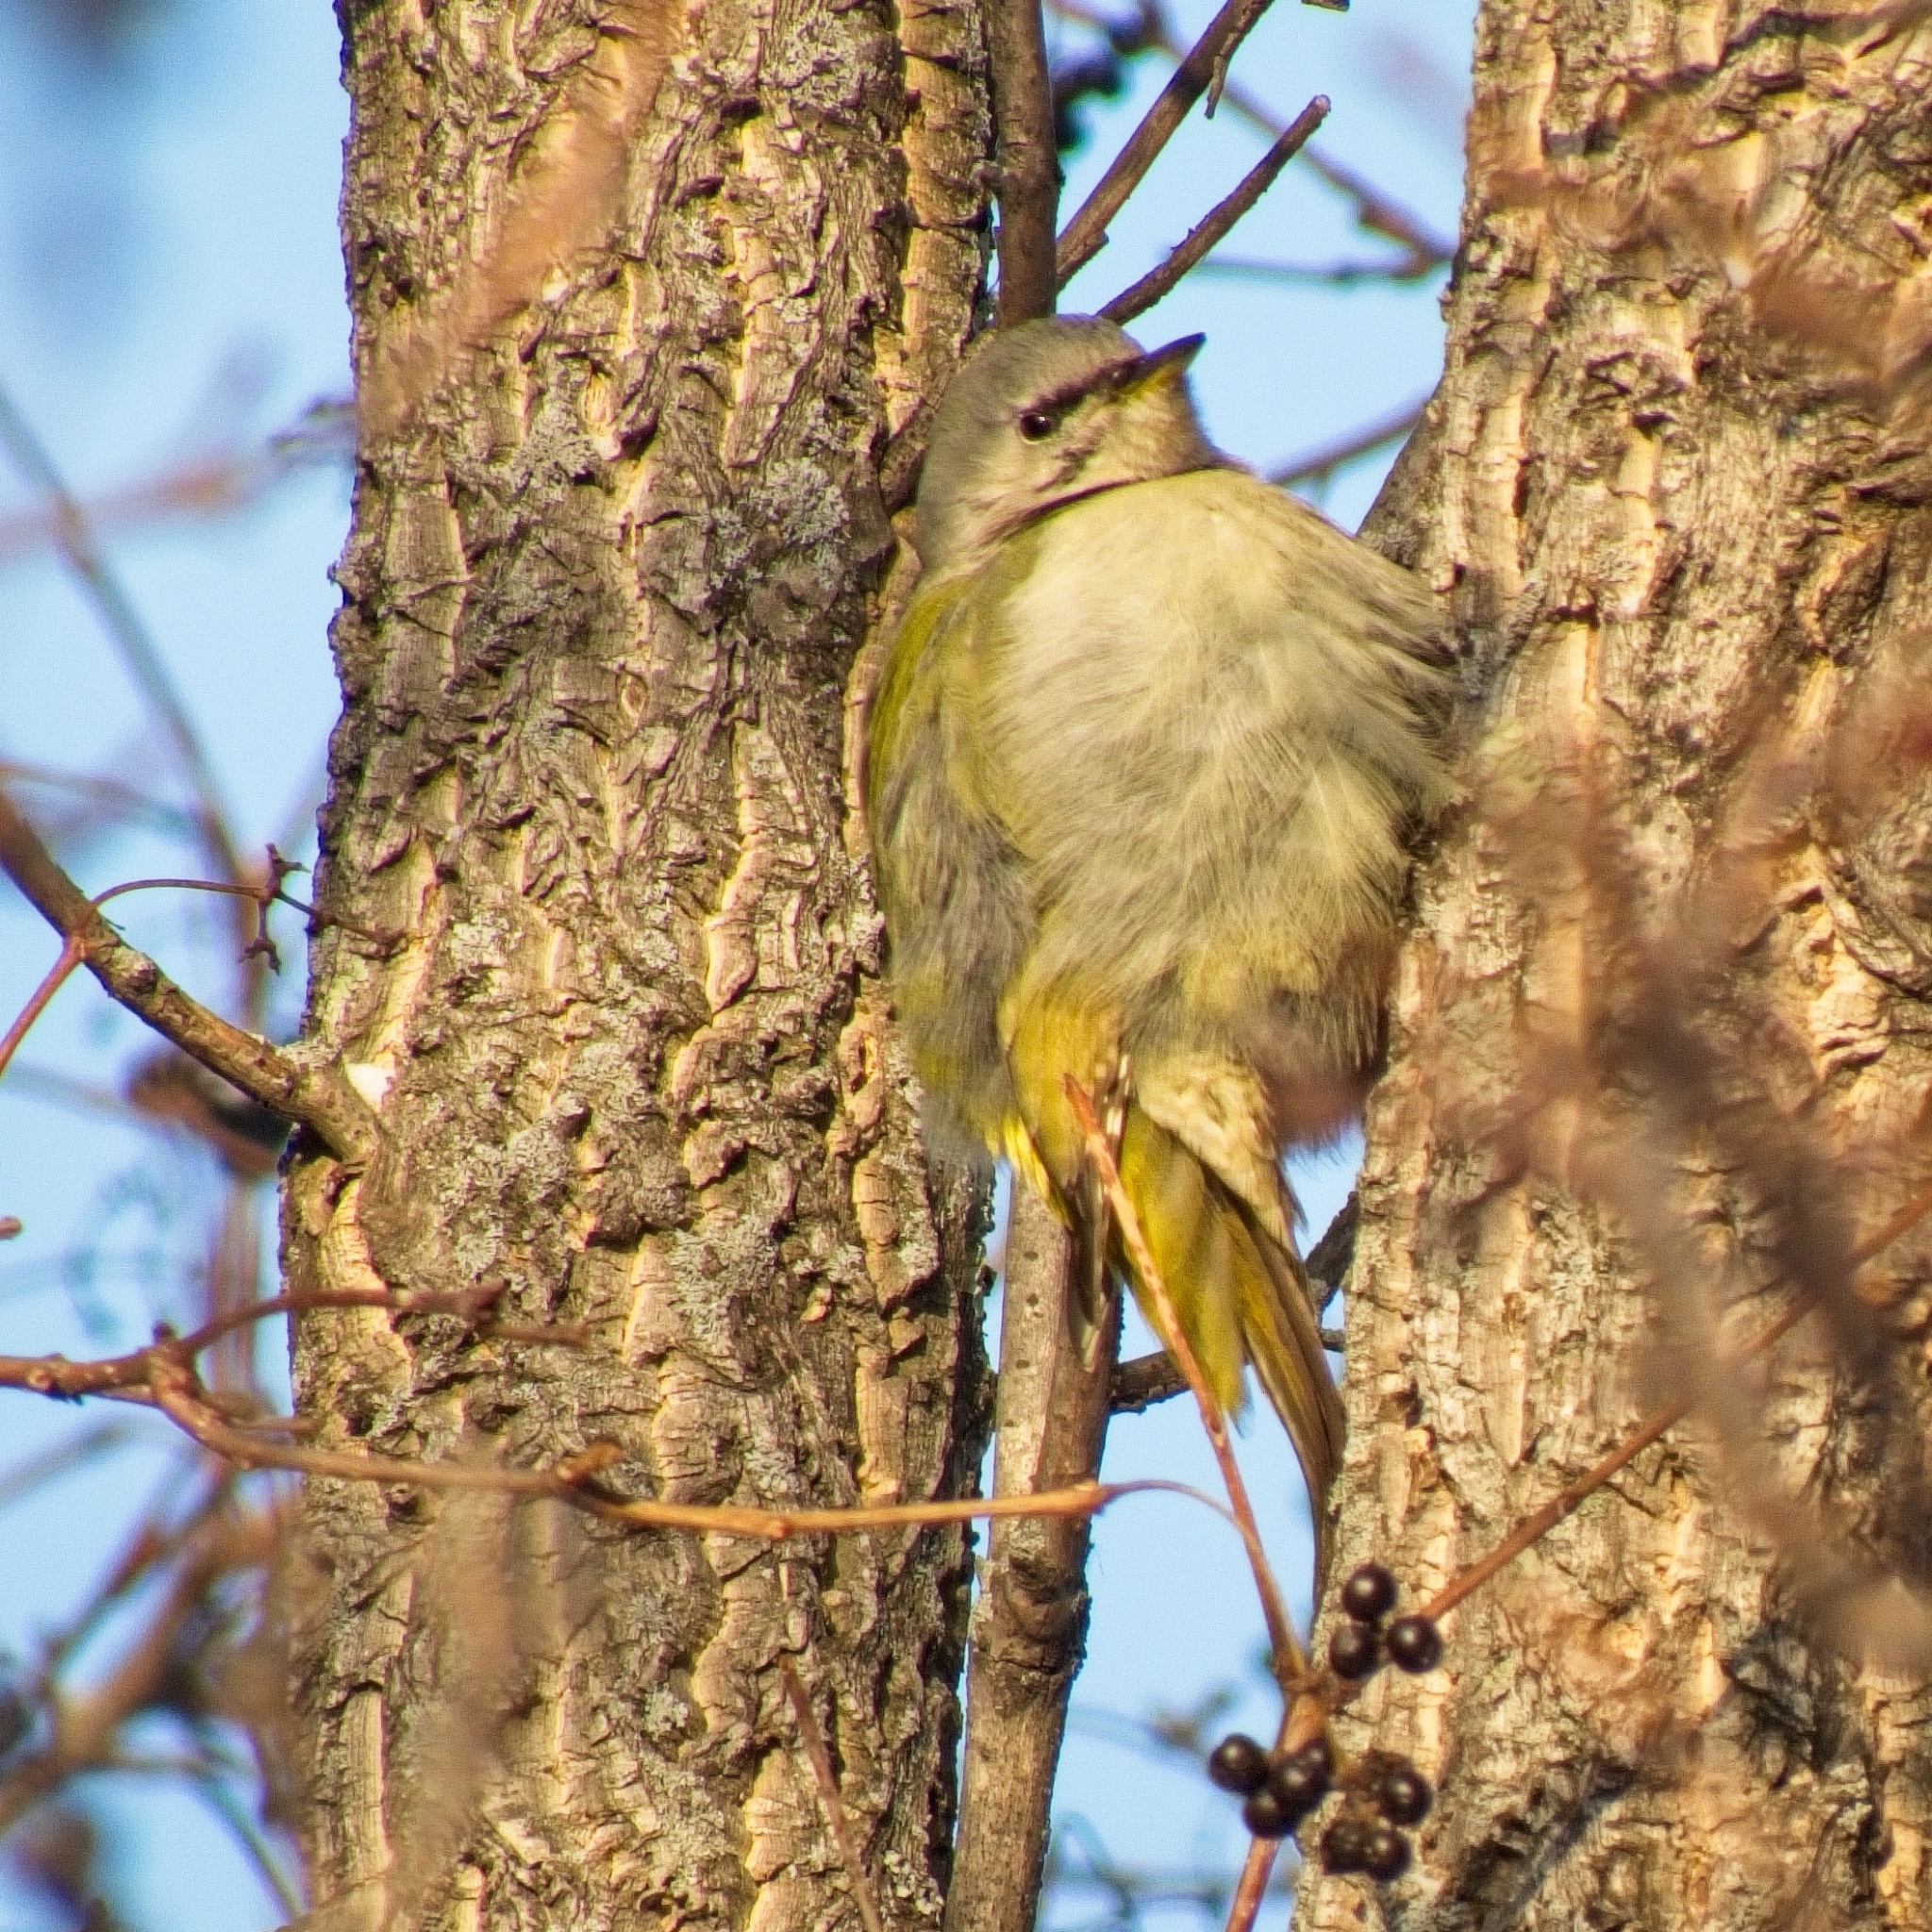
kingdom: Animalia
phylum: Chordata
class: Aves
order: Piciformes
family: Picidae
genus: Picus
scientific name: Picus canus
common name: Grey-headed woodpecker
